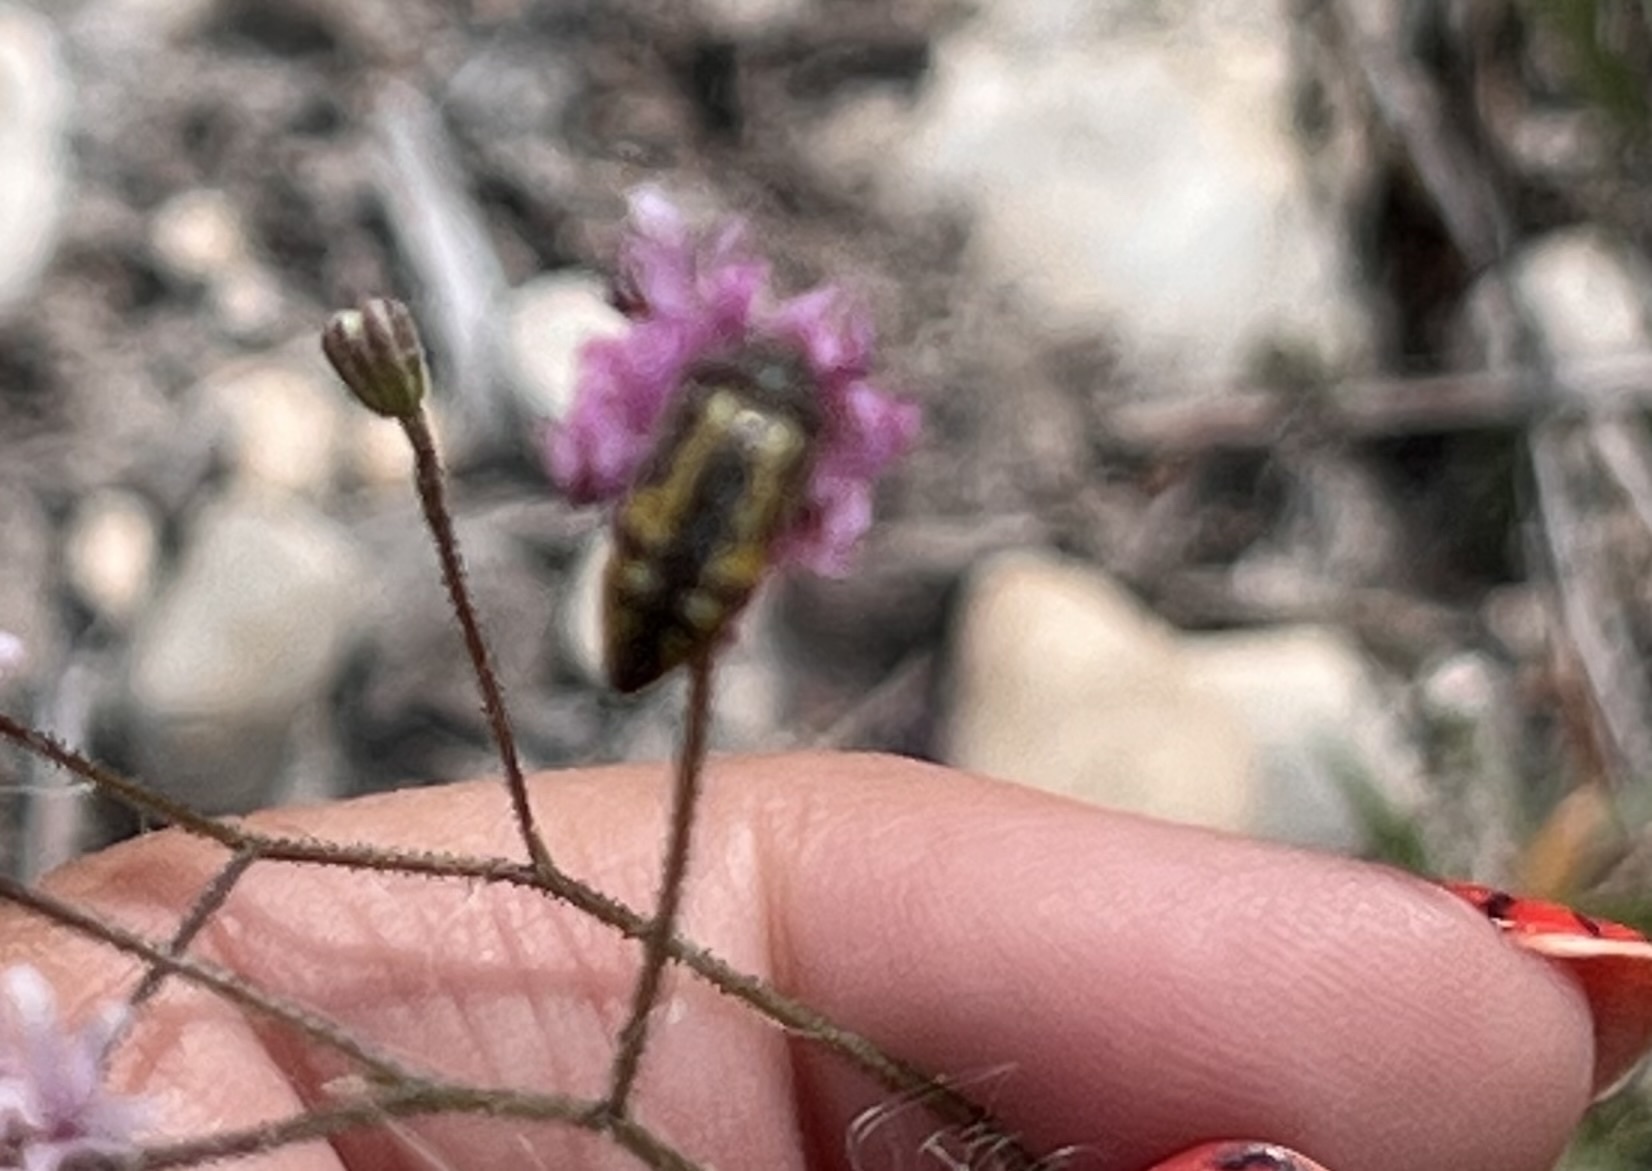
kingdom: Animalia
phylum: Arthropoda
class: Insecta
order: Coleoptera
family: Buprestidae
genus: Acmaeodera
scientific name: Acmaeodera scalaris
